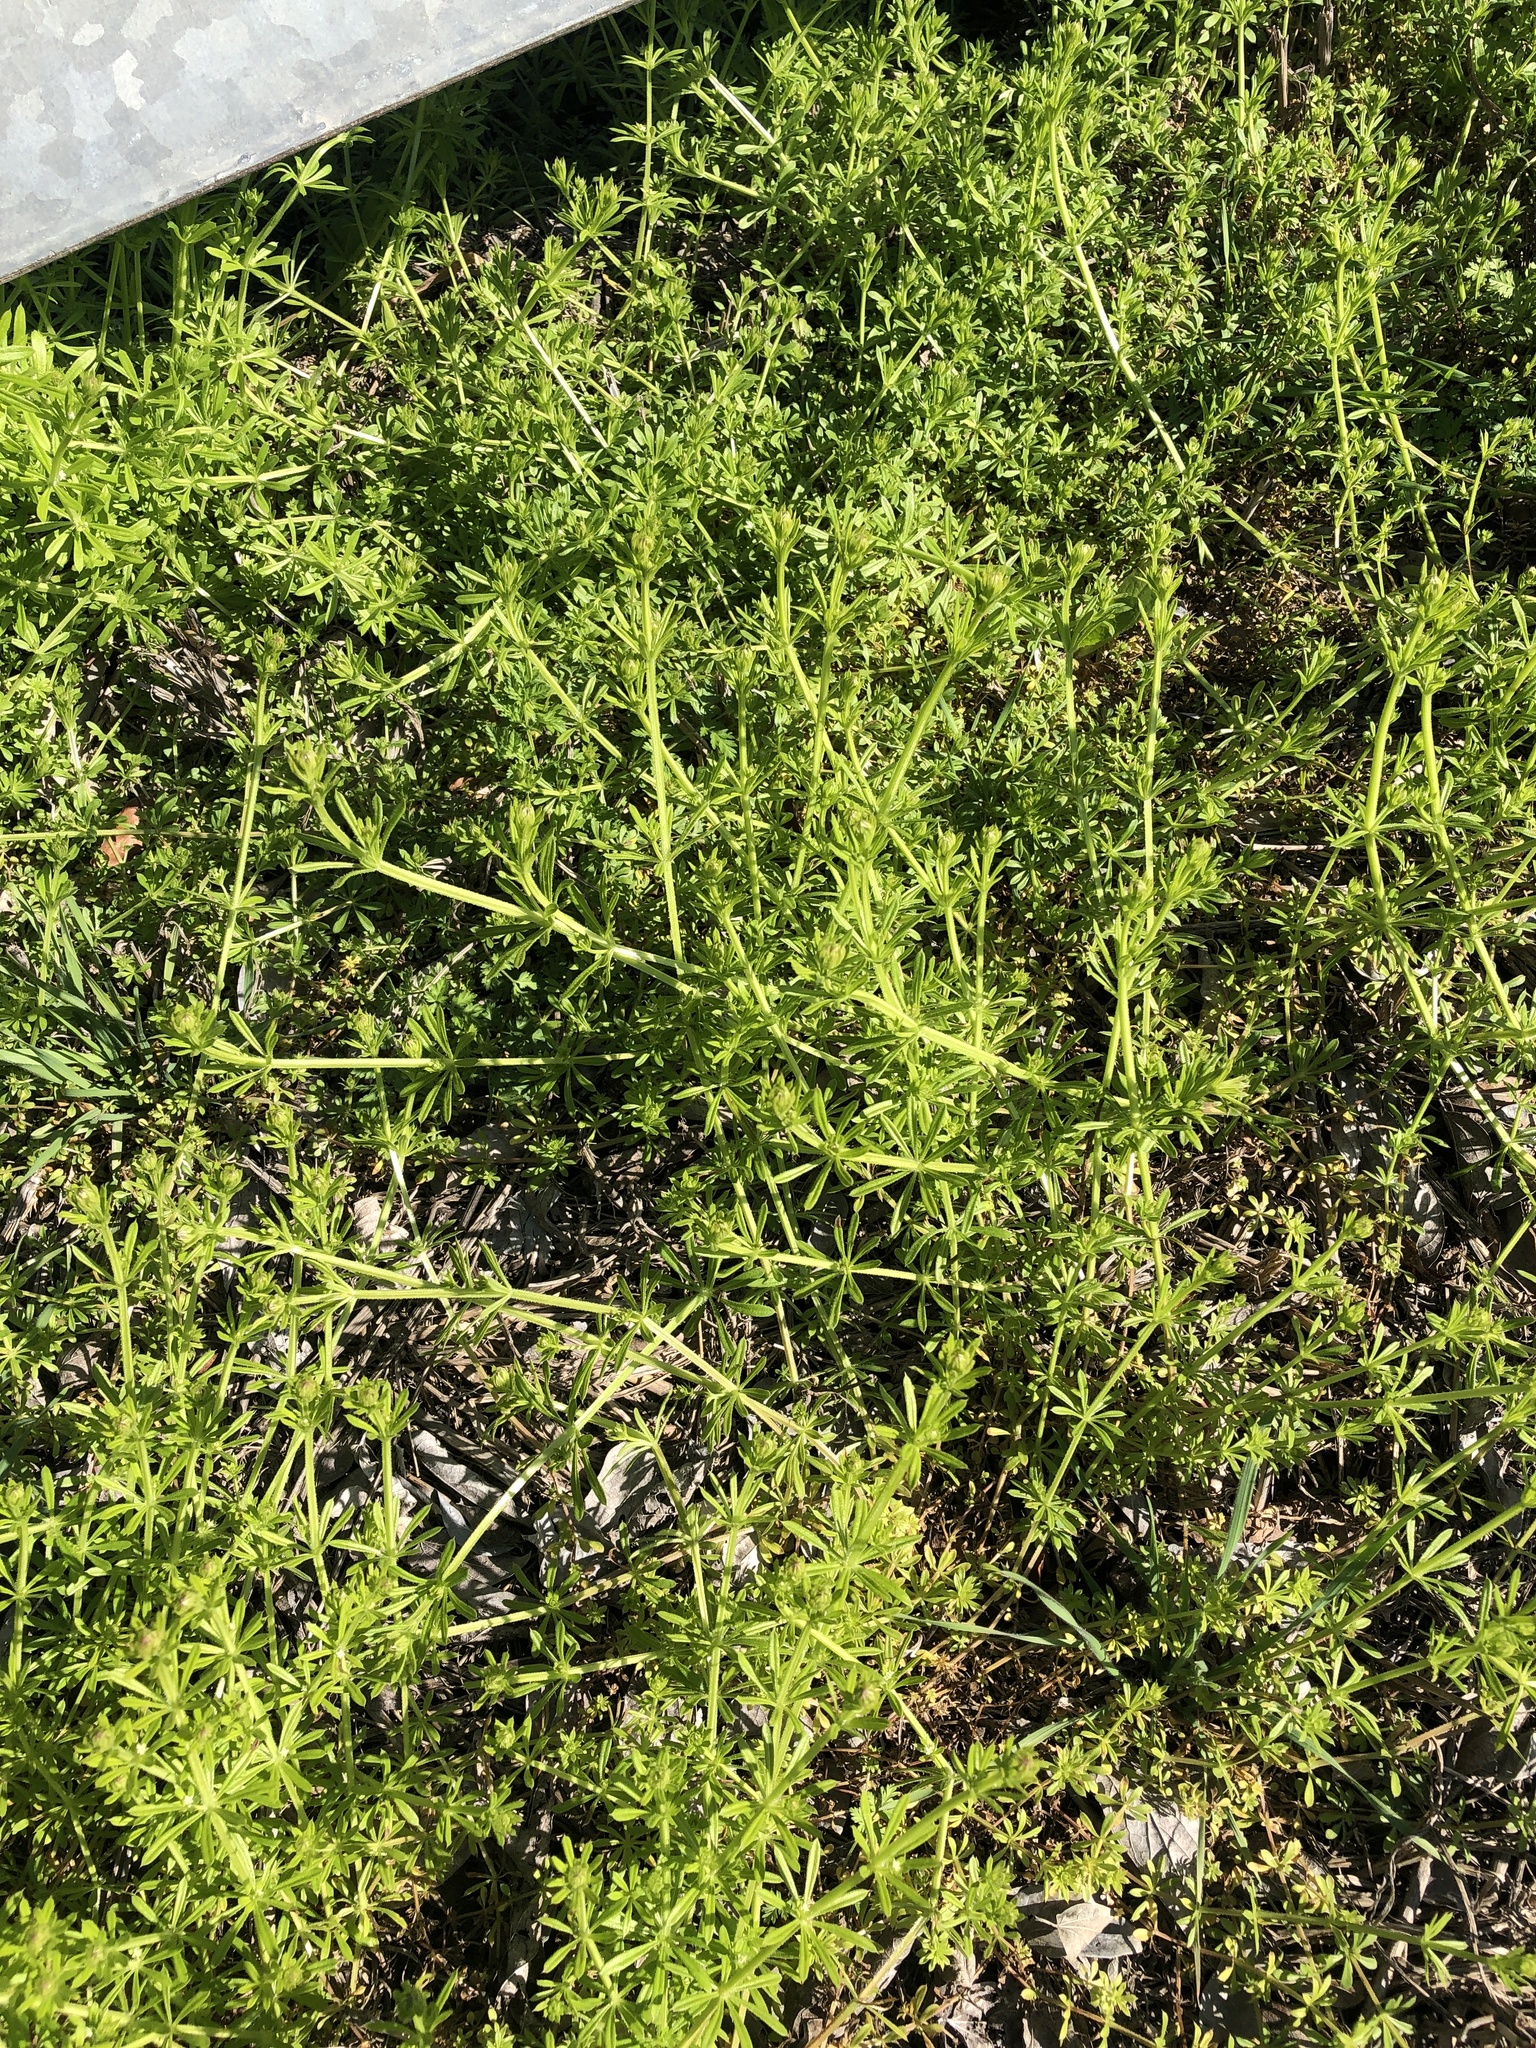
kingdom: Plantae
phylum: Tracheophyta
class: Magnoliopsida
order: Gentianales
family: Rubiaceae
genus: Galium
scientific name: Galium aparine
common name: Cleavers
